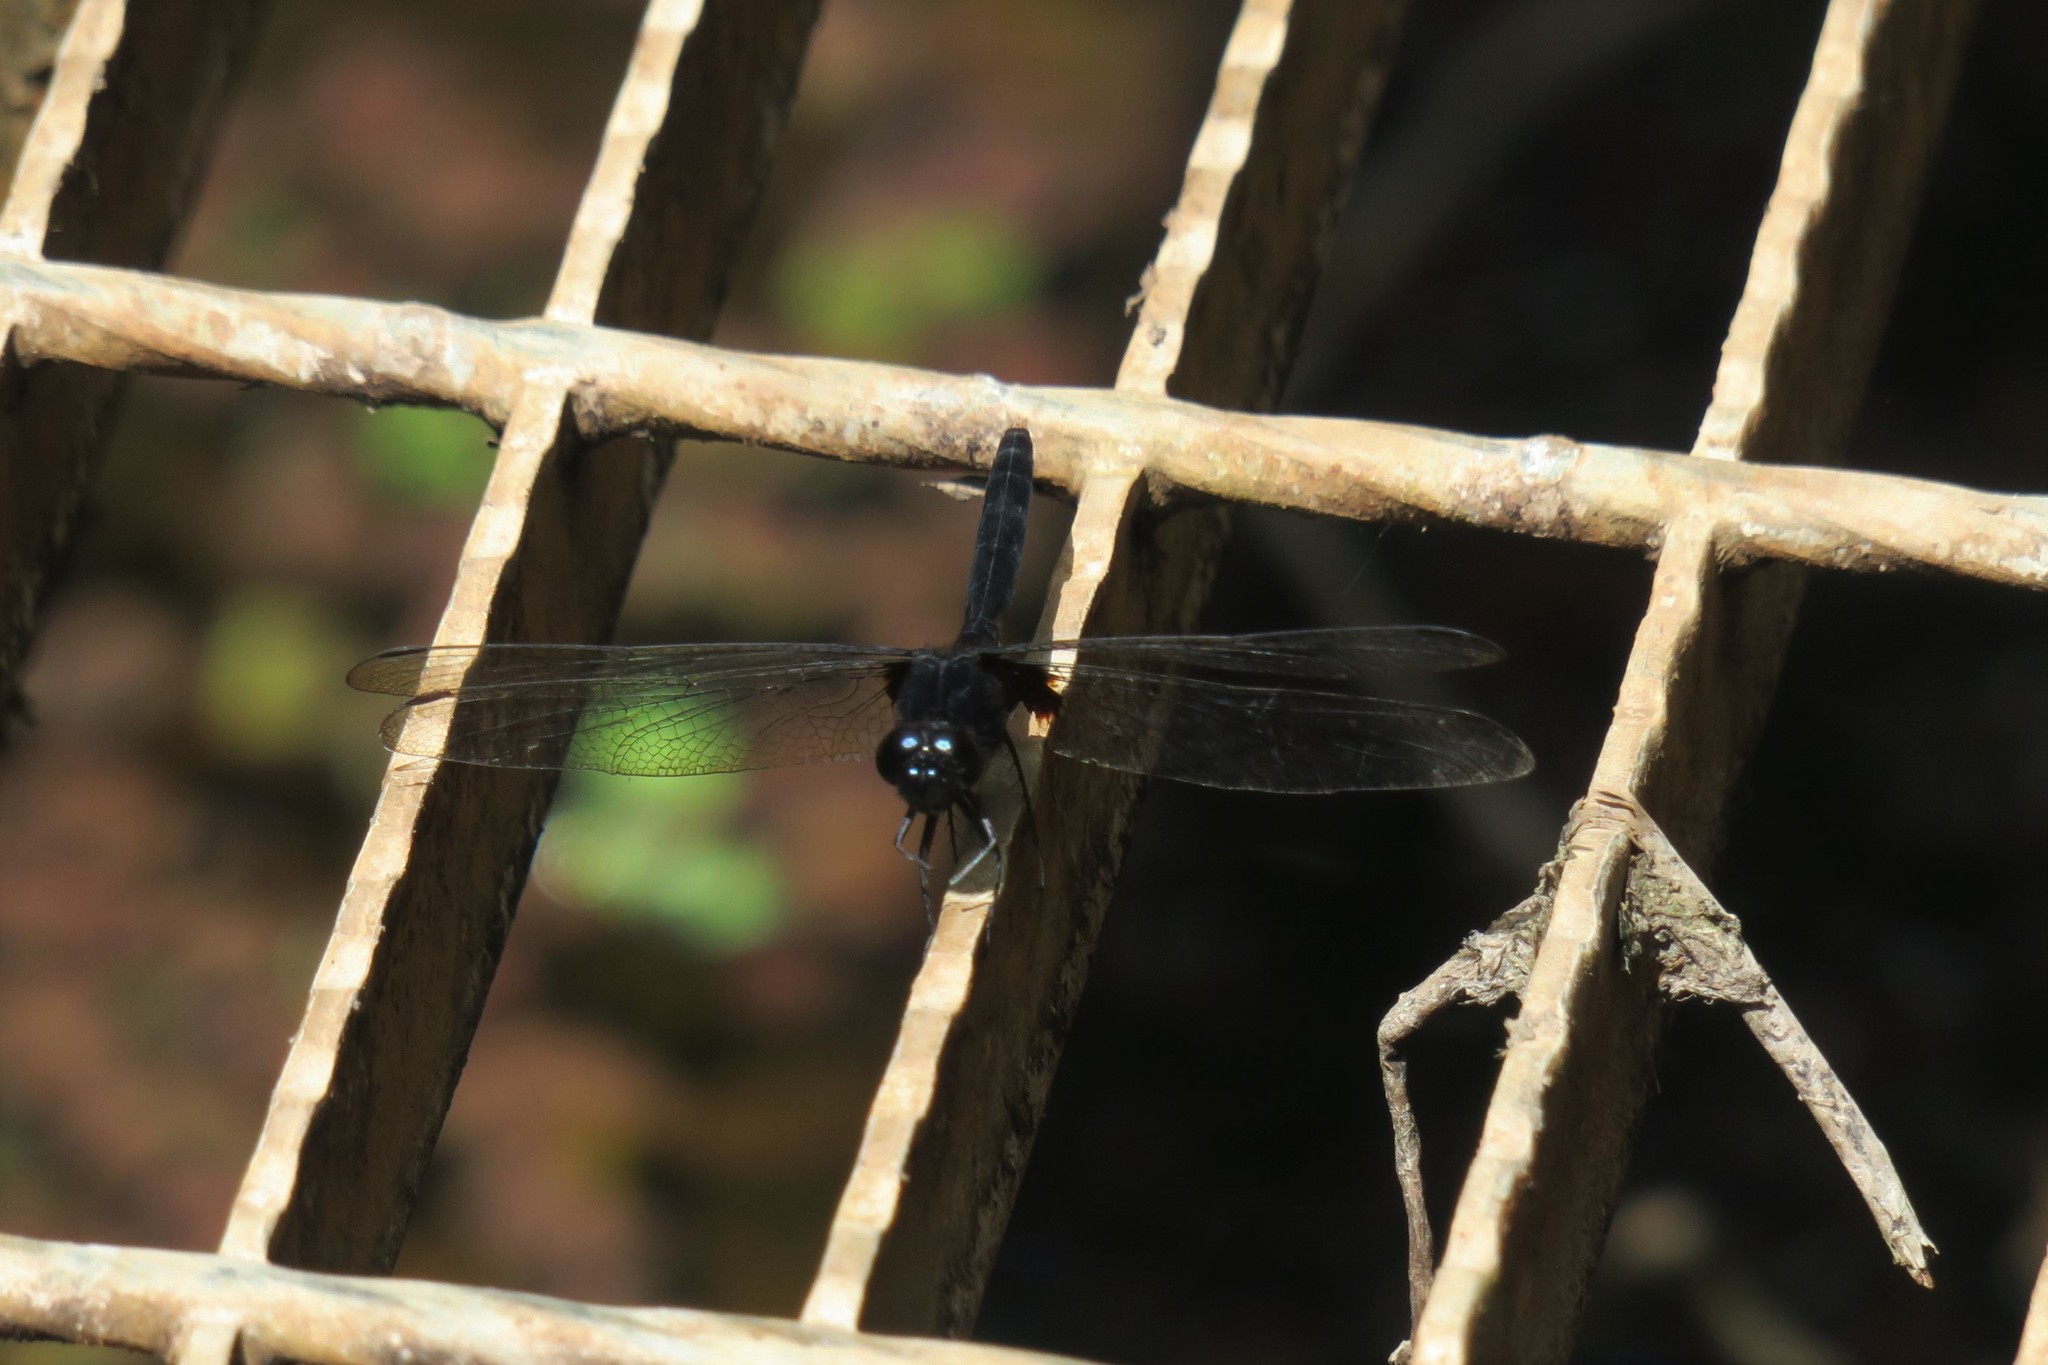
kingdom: Animalia
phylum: Arthropoda
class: Insecta
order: Odonata
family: Libellulidae
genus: Erythemis
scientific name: Erythemis attala
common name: Black pondhawk
